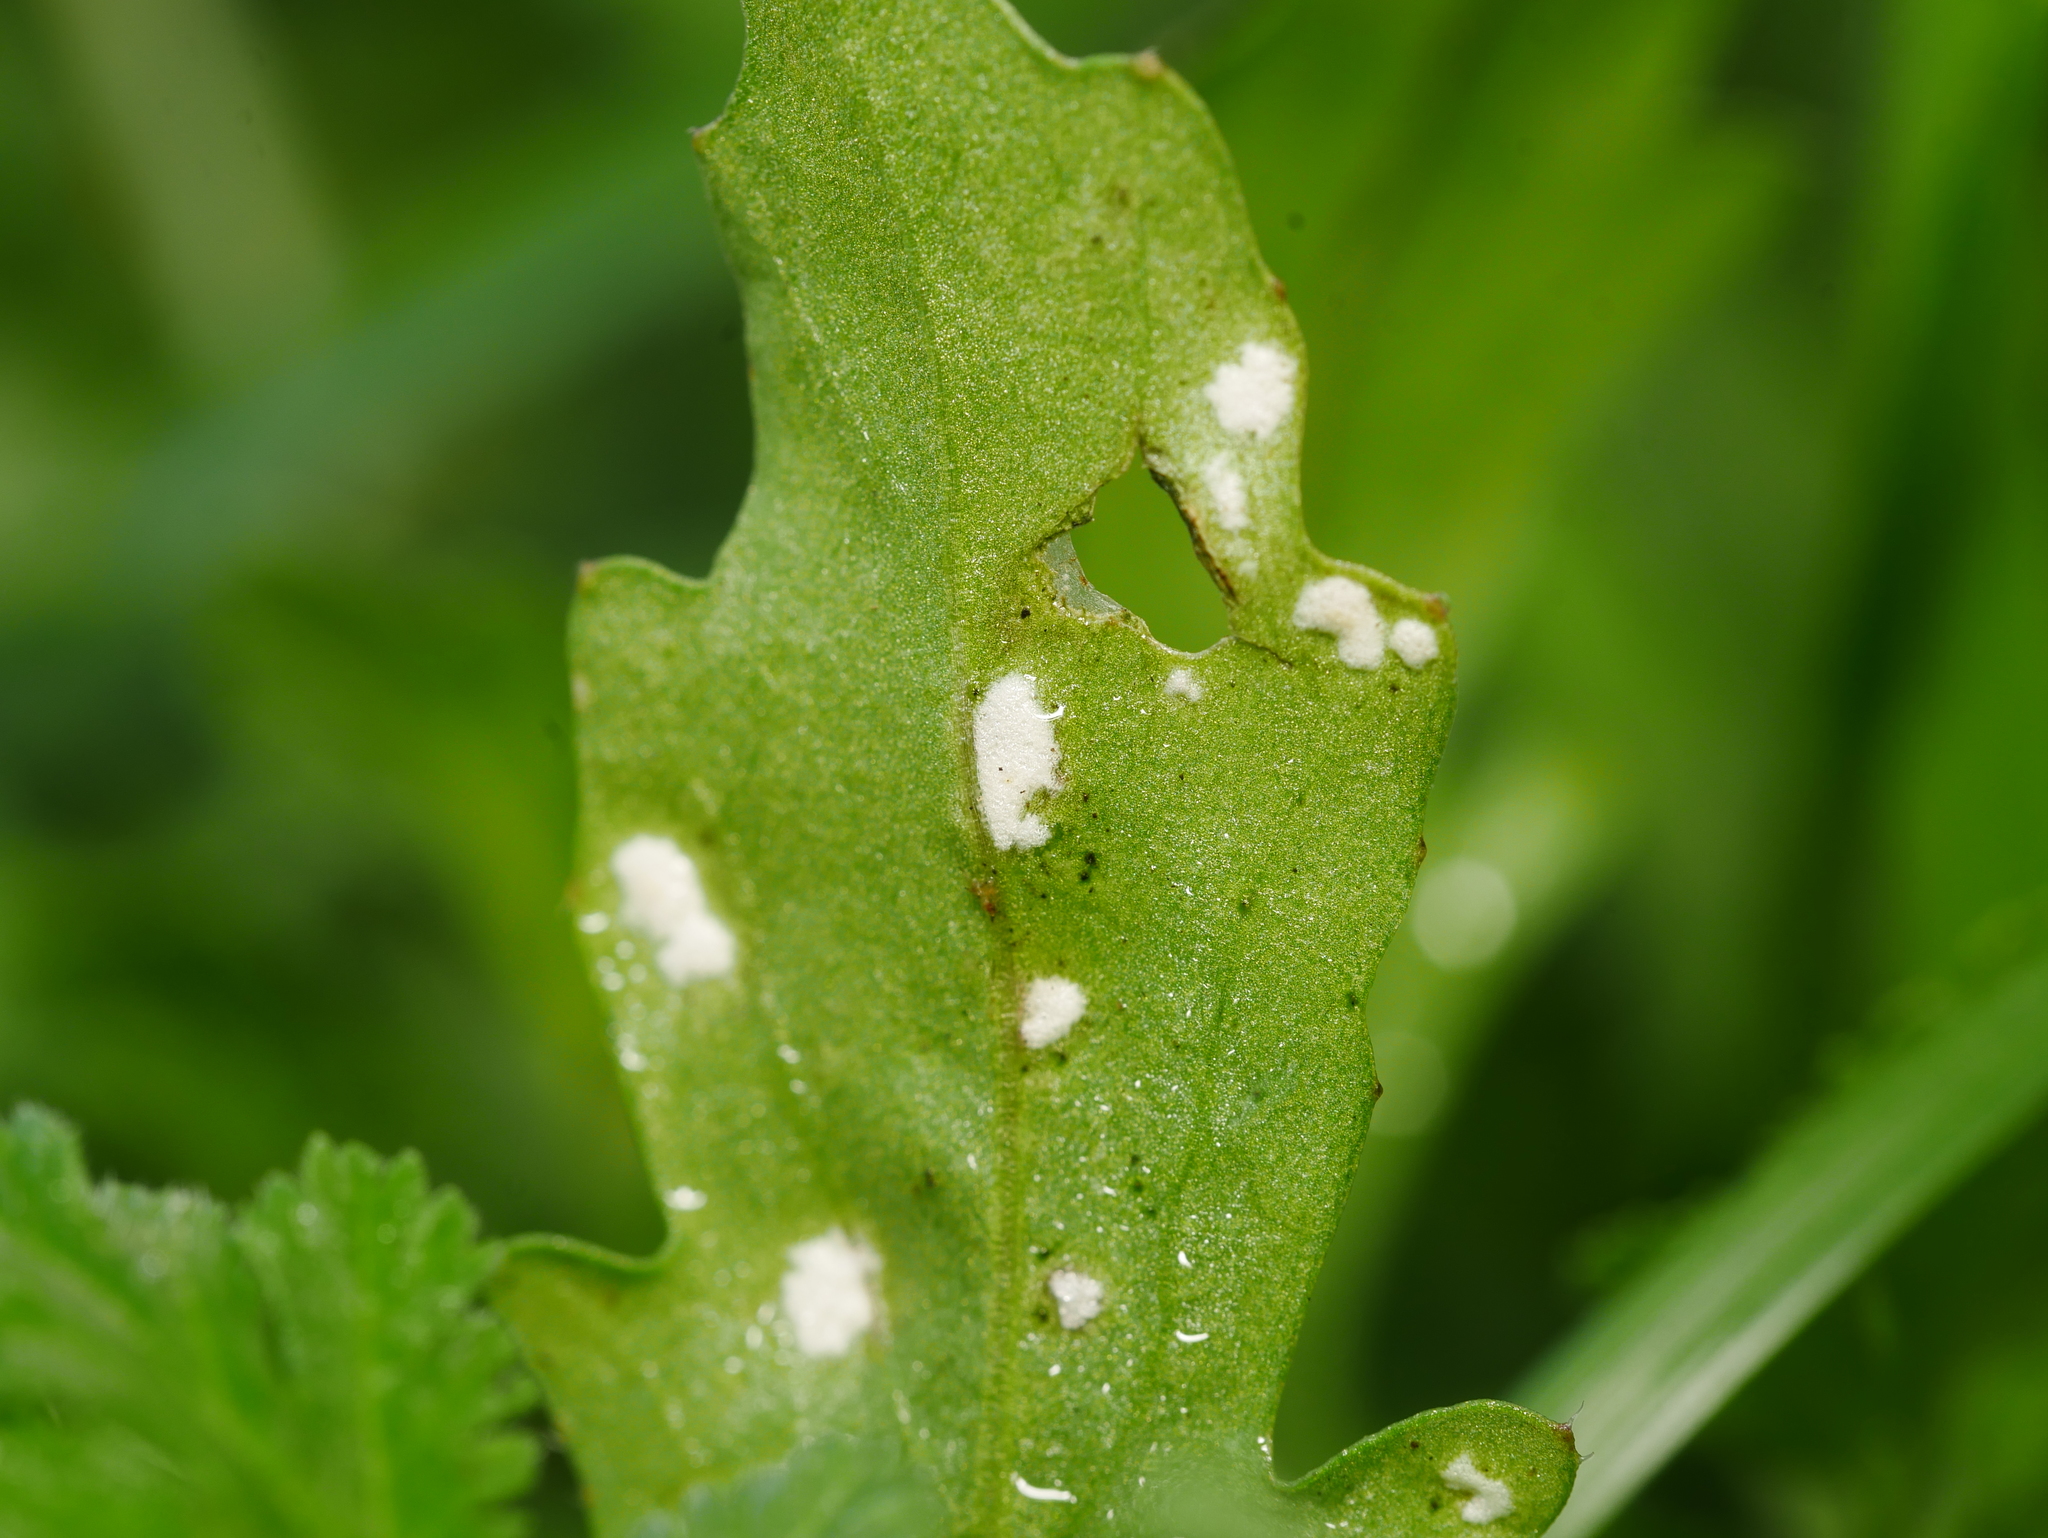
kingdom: Chromista
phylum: Oomycota
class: Peronosporea
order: Albuginales
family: Albuginaceae
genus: Albugo
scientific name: Albugo candida
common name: Crucifer white blister
